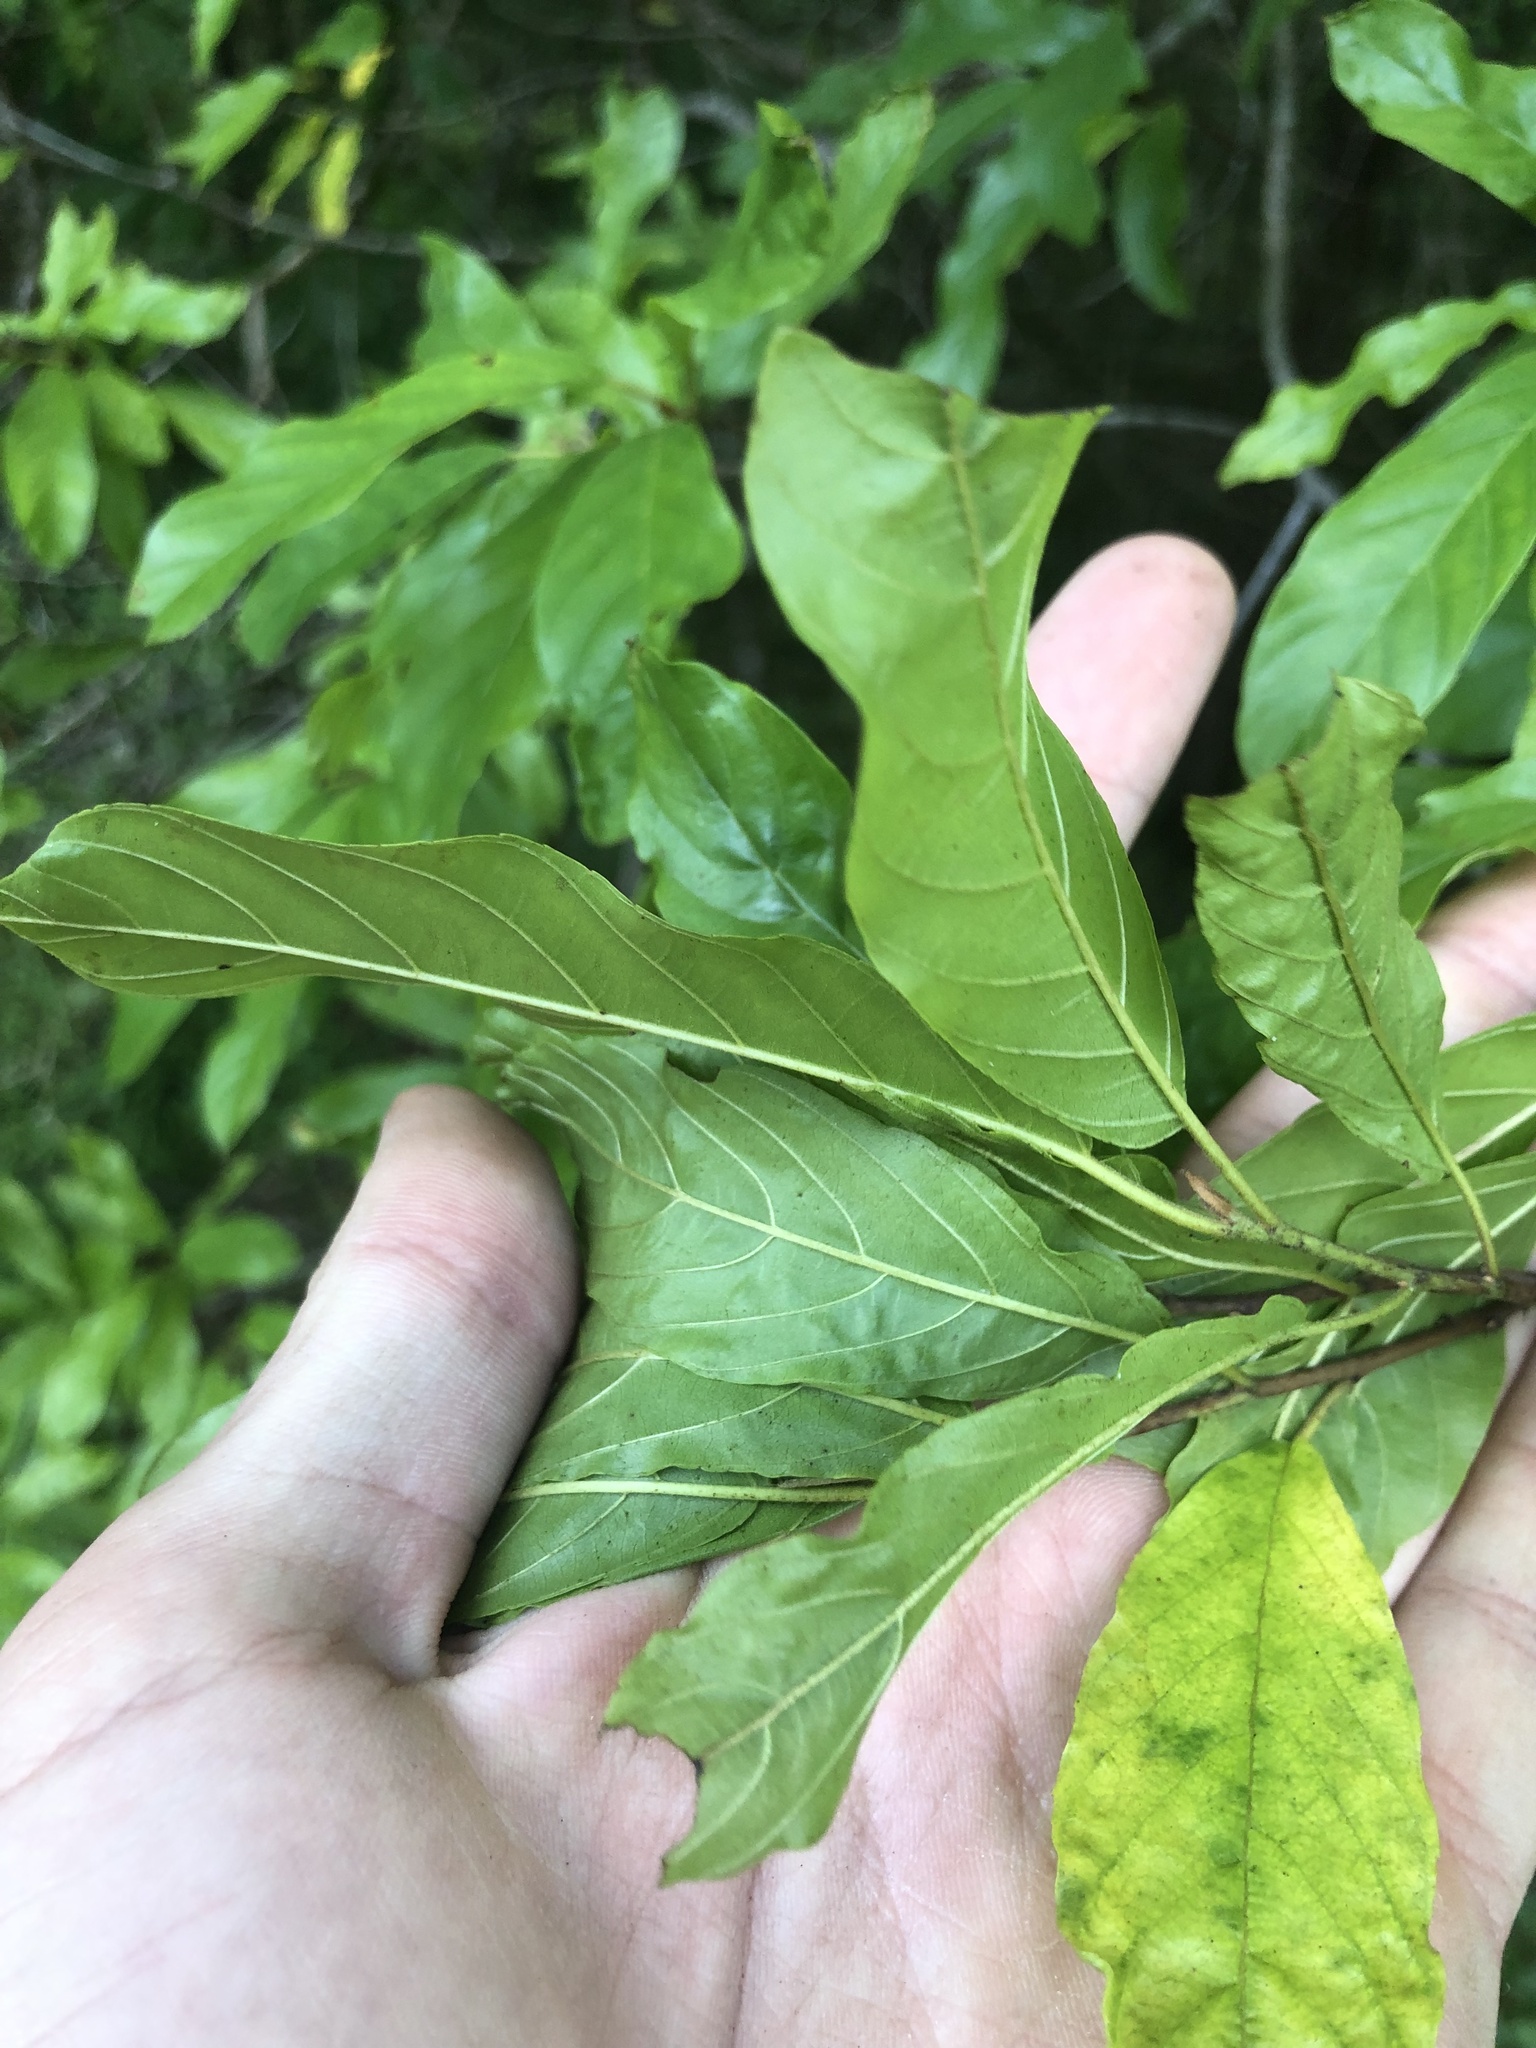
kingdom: Plantae
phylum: Tracheophyta
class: Magnoliopsida
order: Rosales
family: Rhamnaceae
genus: Frangula
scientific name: Frangula caroliniana
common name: Carolina buckthorn
